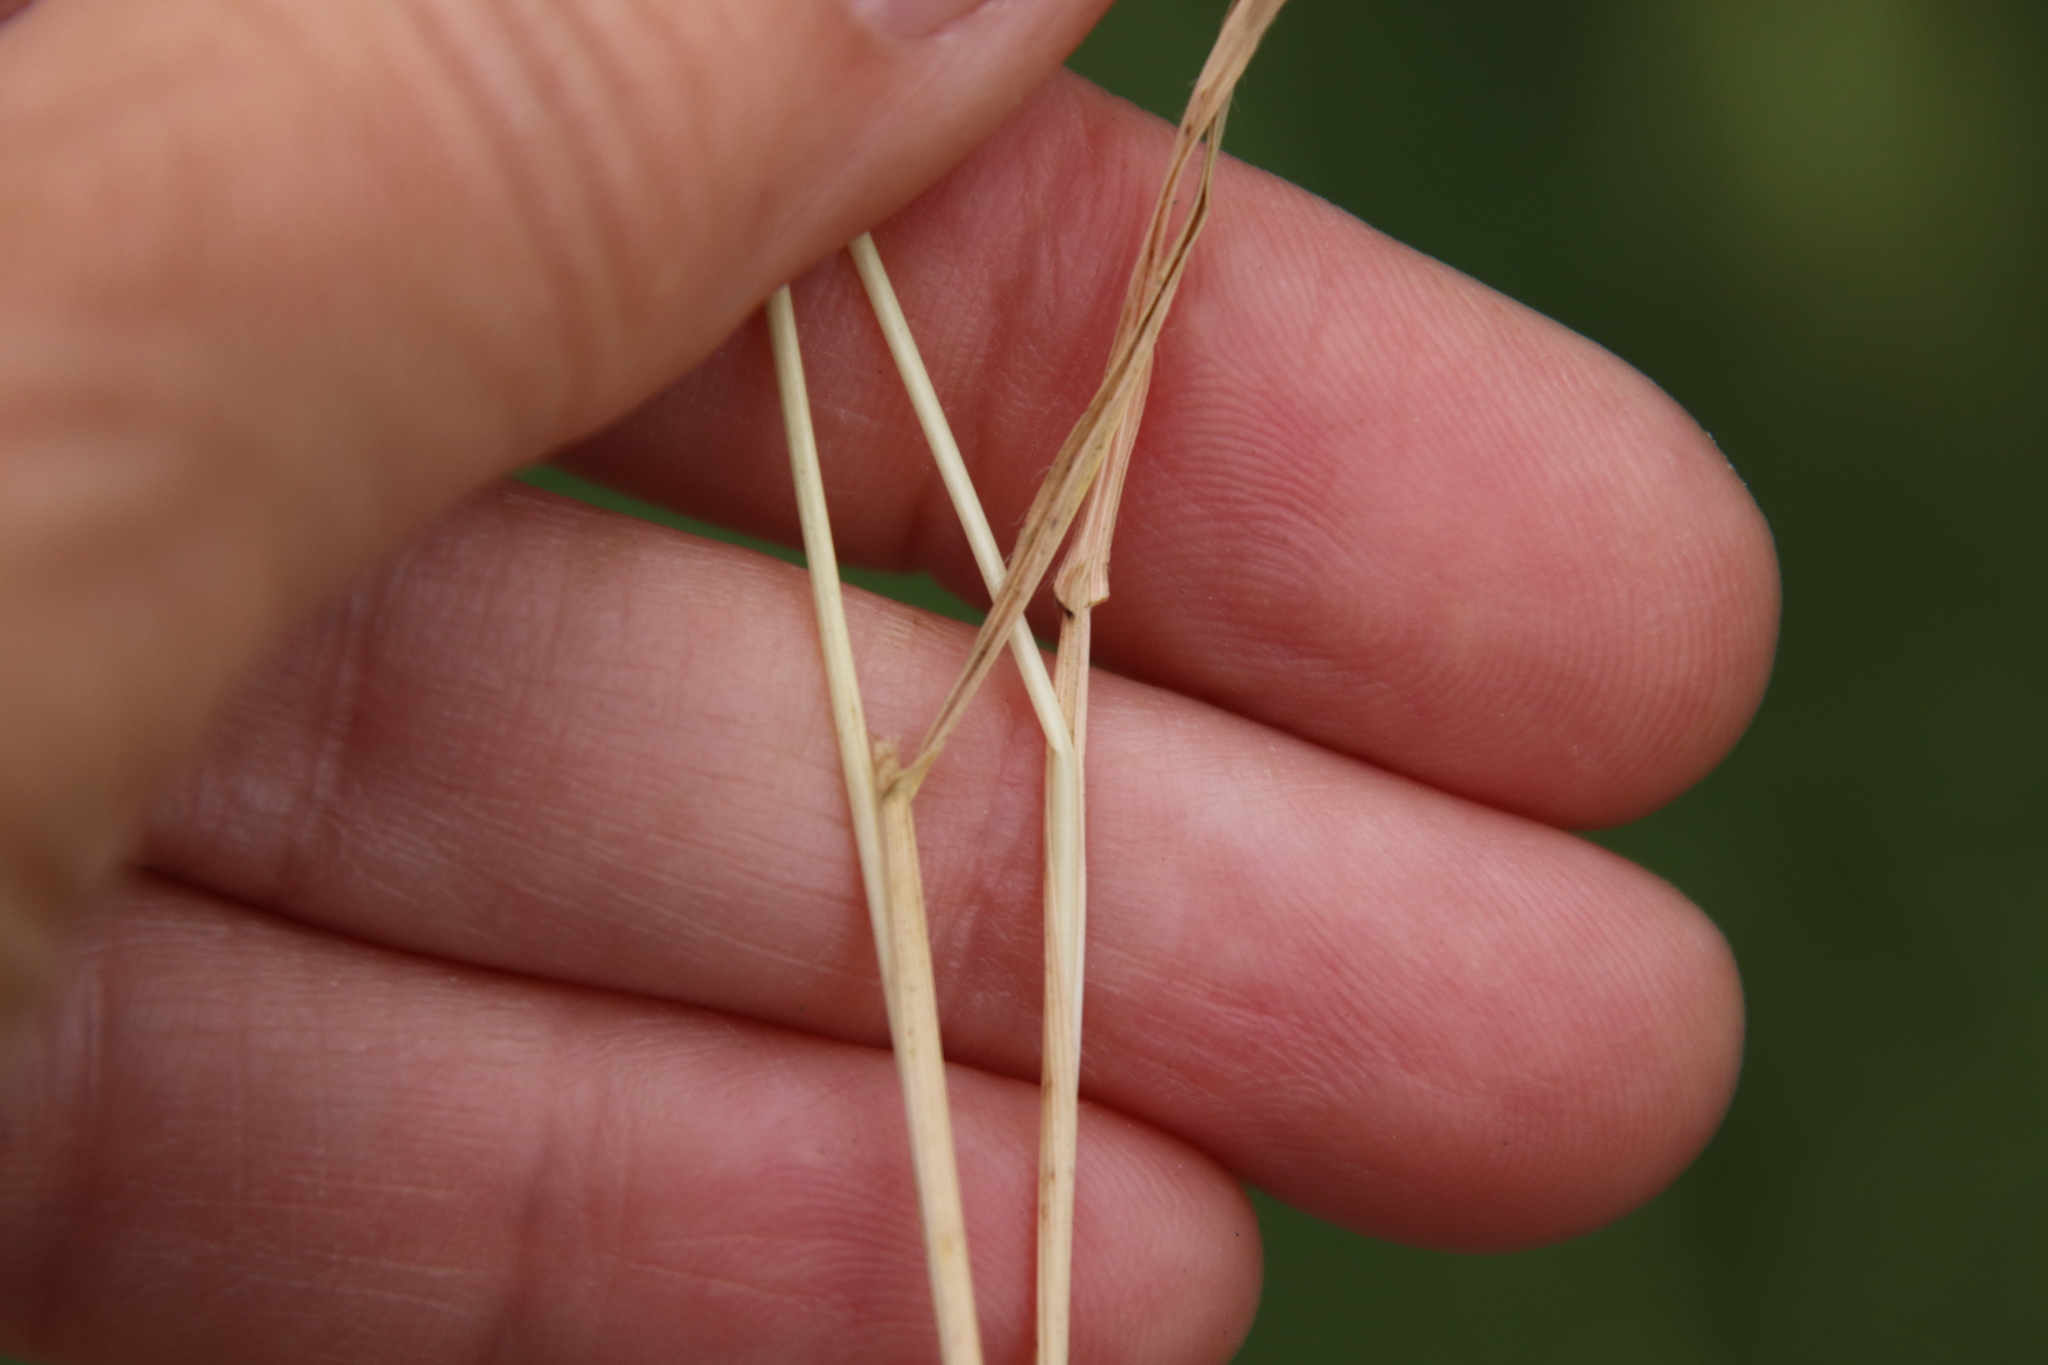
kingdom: Plantae
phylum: Tracheophyta
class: Liliopsida
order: Poales
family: Poaceae
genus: Brachypodium
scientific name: Brachypodium distachyon
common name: Stiff brome
